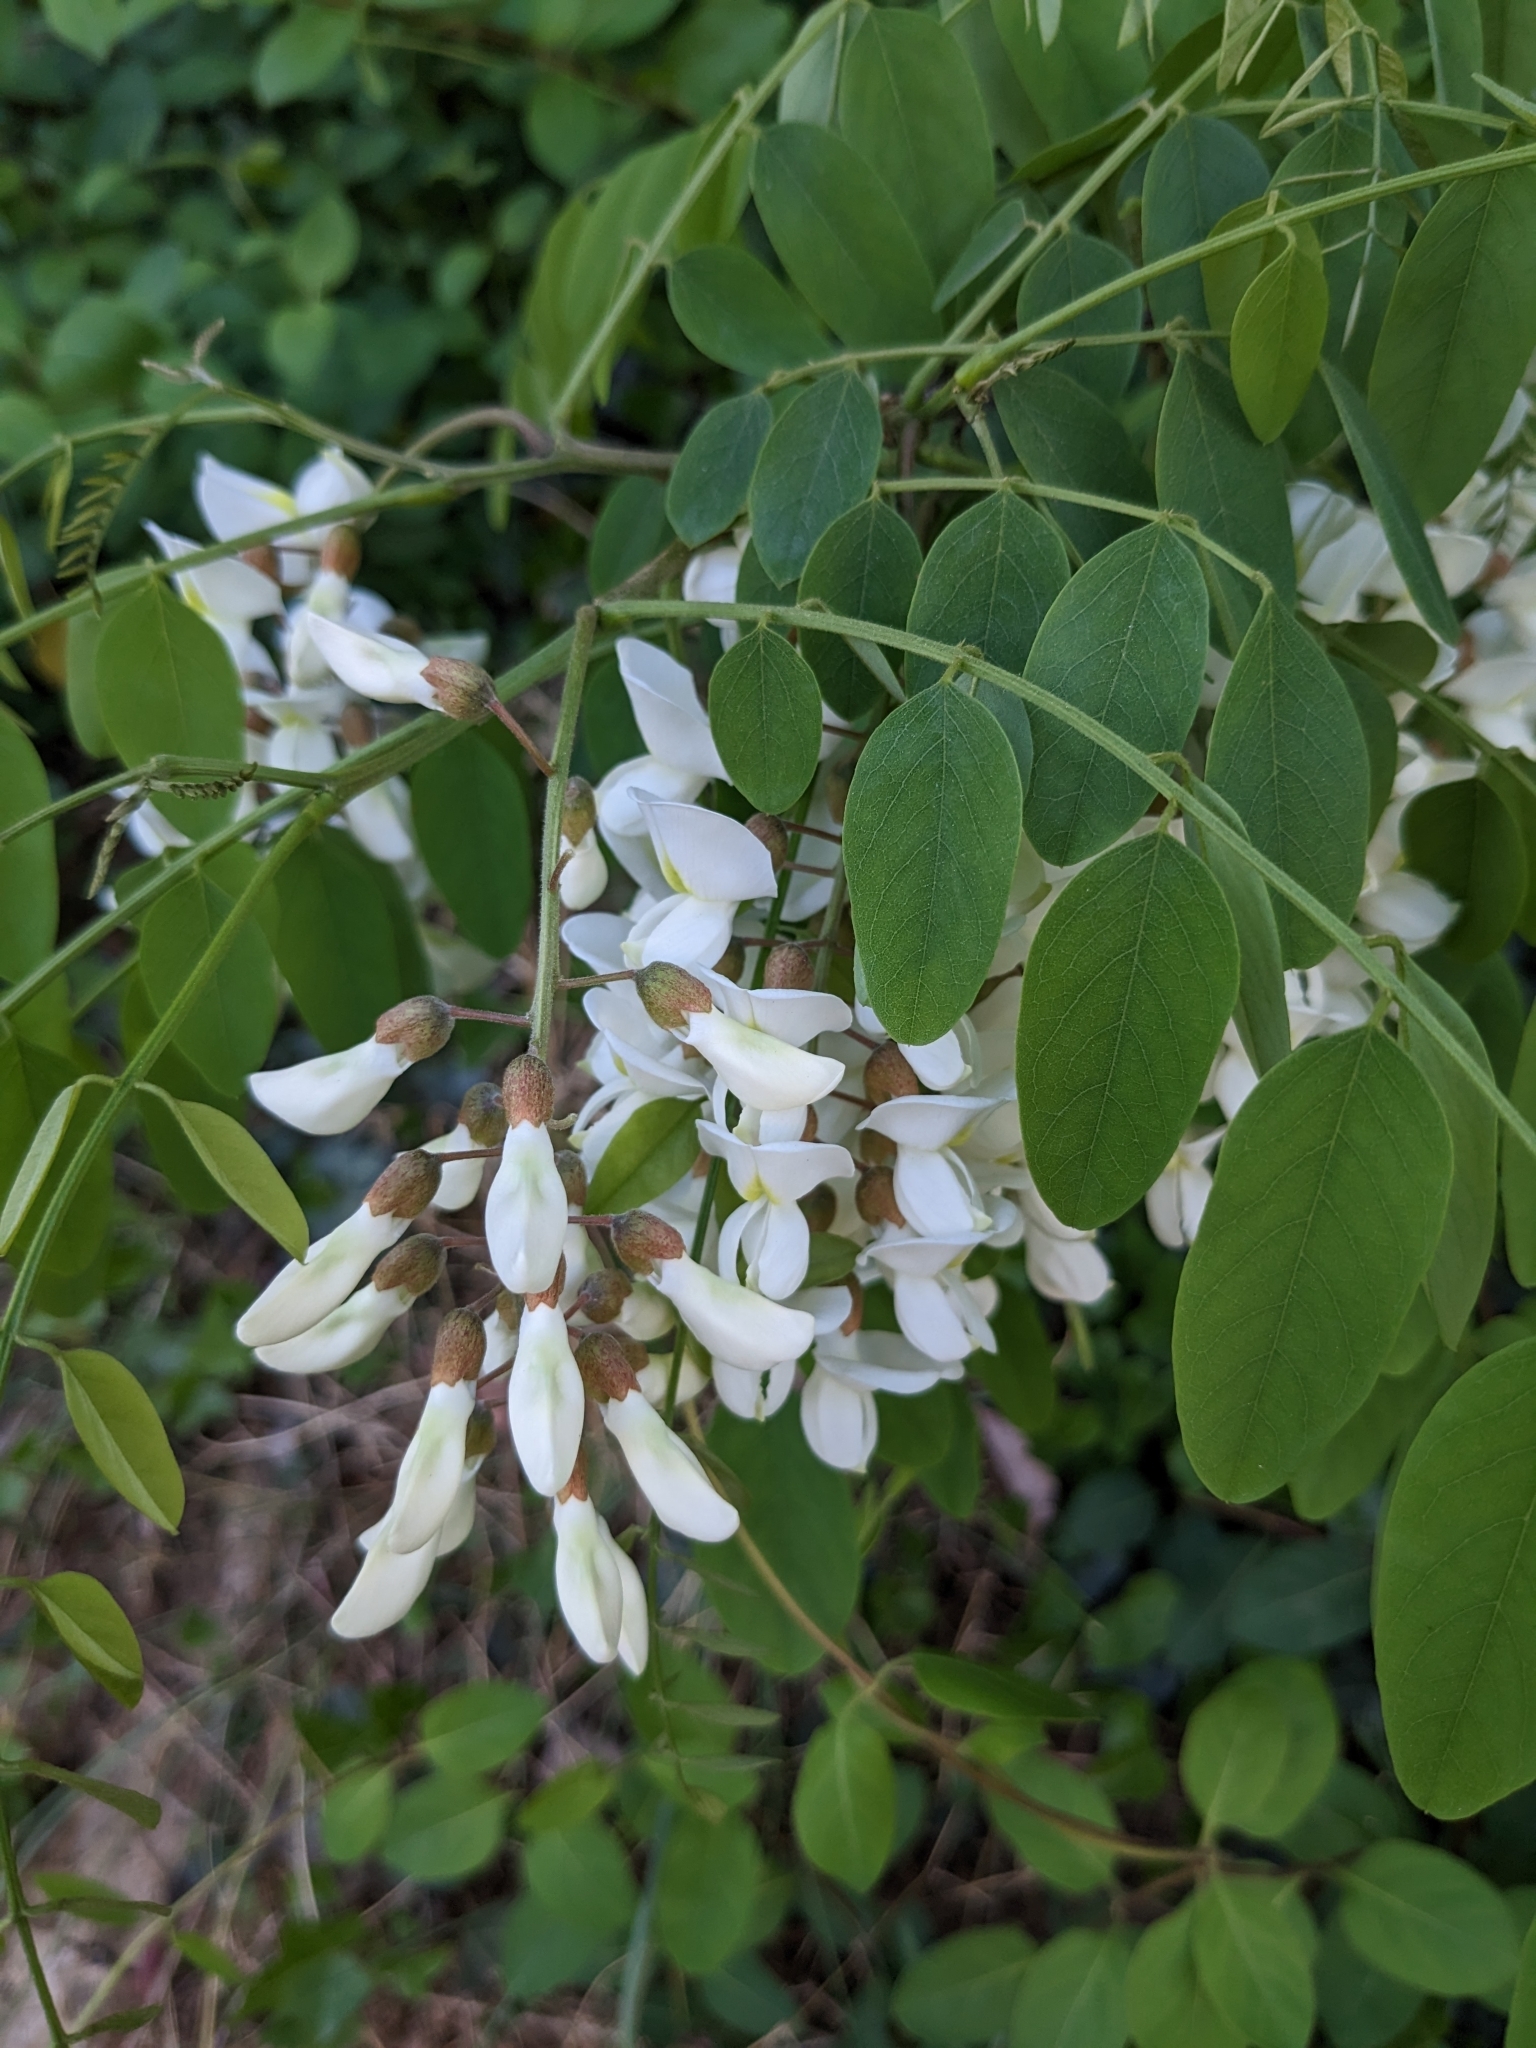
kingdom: Plantae
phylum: Tracheophyta
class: Magnoliopsida
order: Fabales
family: Fabaceae
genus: Robinia
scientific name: Robinia pseudoacacia
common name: Black locust
